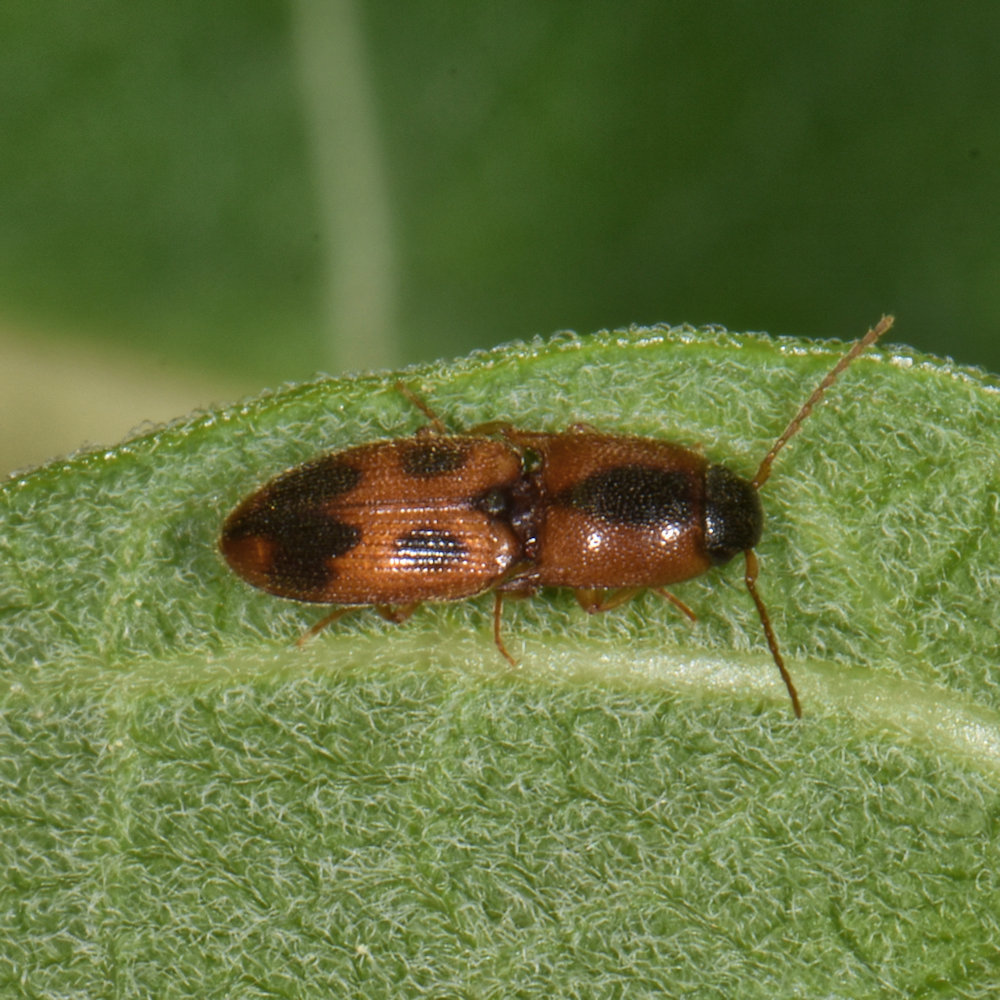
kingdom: Animalia
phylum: Arthropoda
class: Insecta
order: Coleoptera
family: Elateridae
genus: Aeolus
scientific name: Aeolus mellillus
